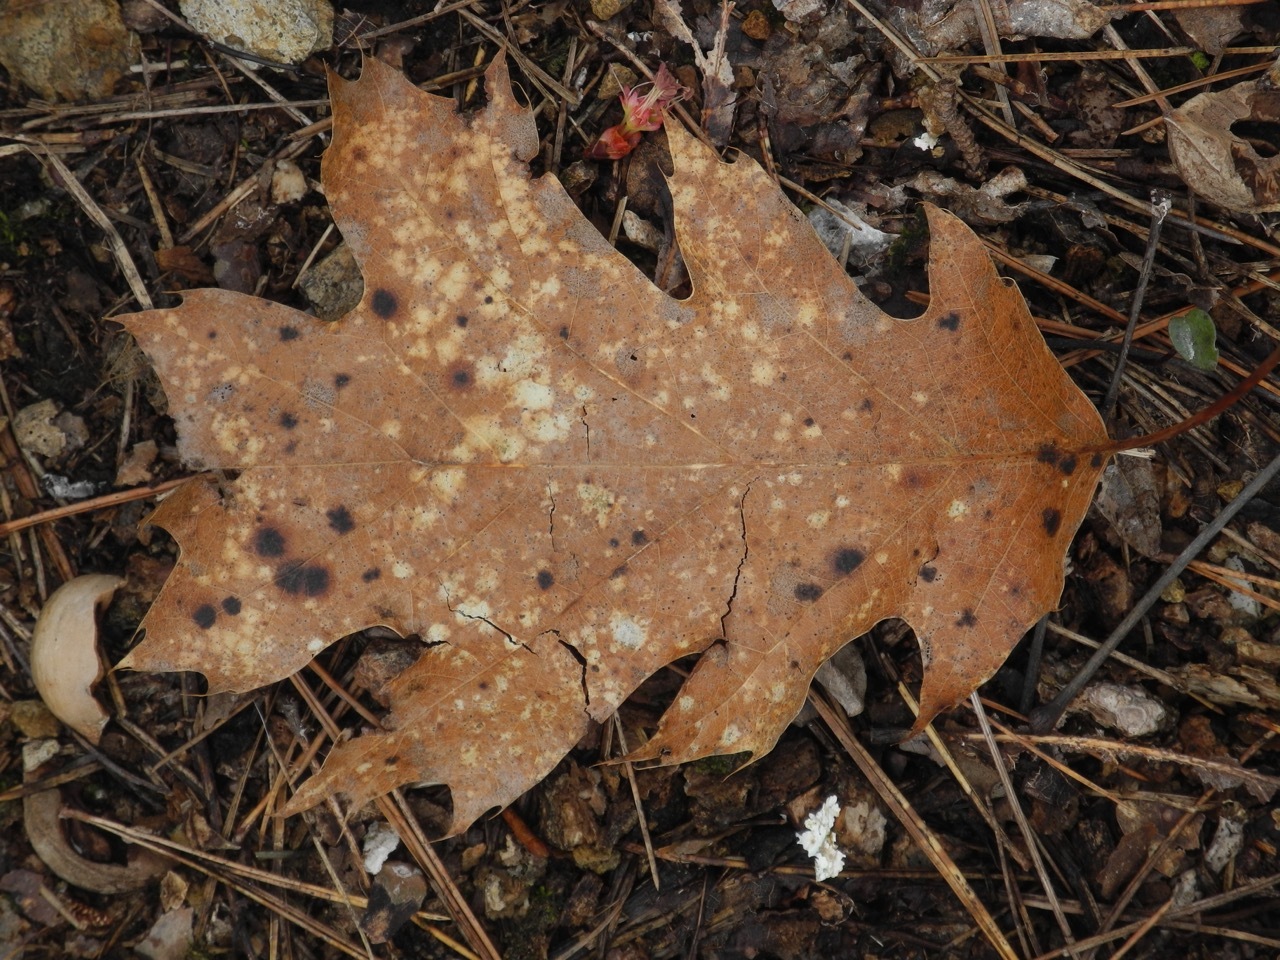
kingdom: Plantae
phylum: Tracheophyta
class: Magnoliopsida
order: Fagales
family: Fagaceae
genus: Quercus
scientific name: Quercus rubra
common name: Red oak
